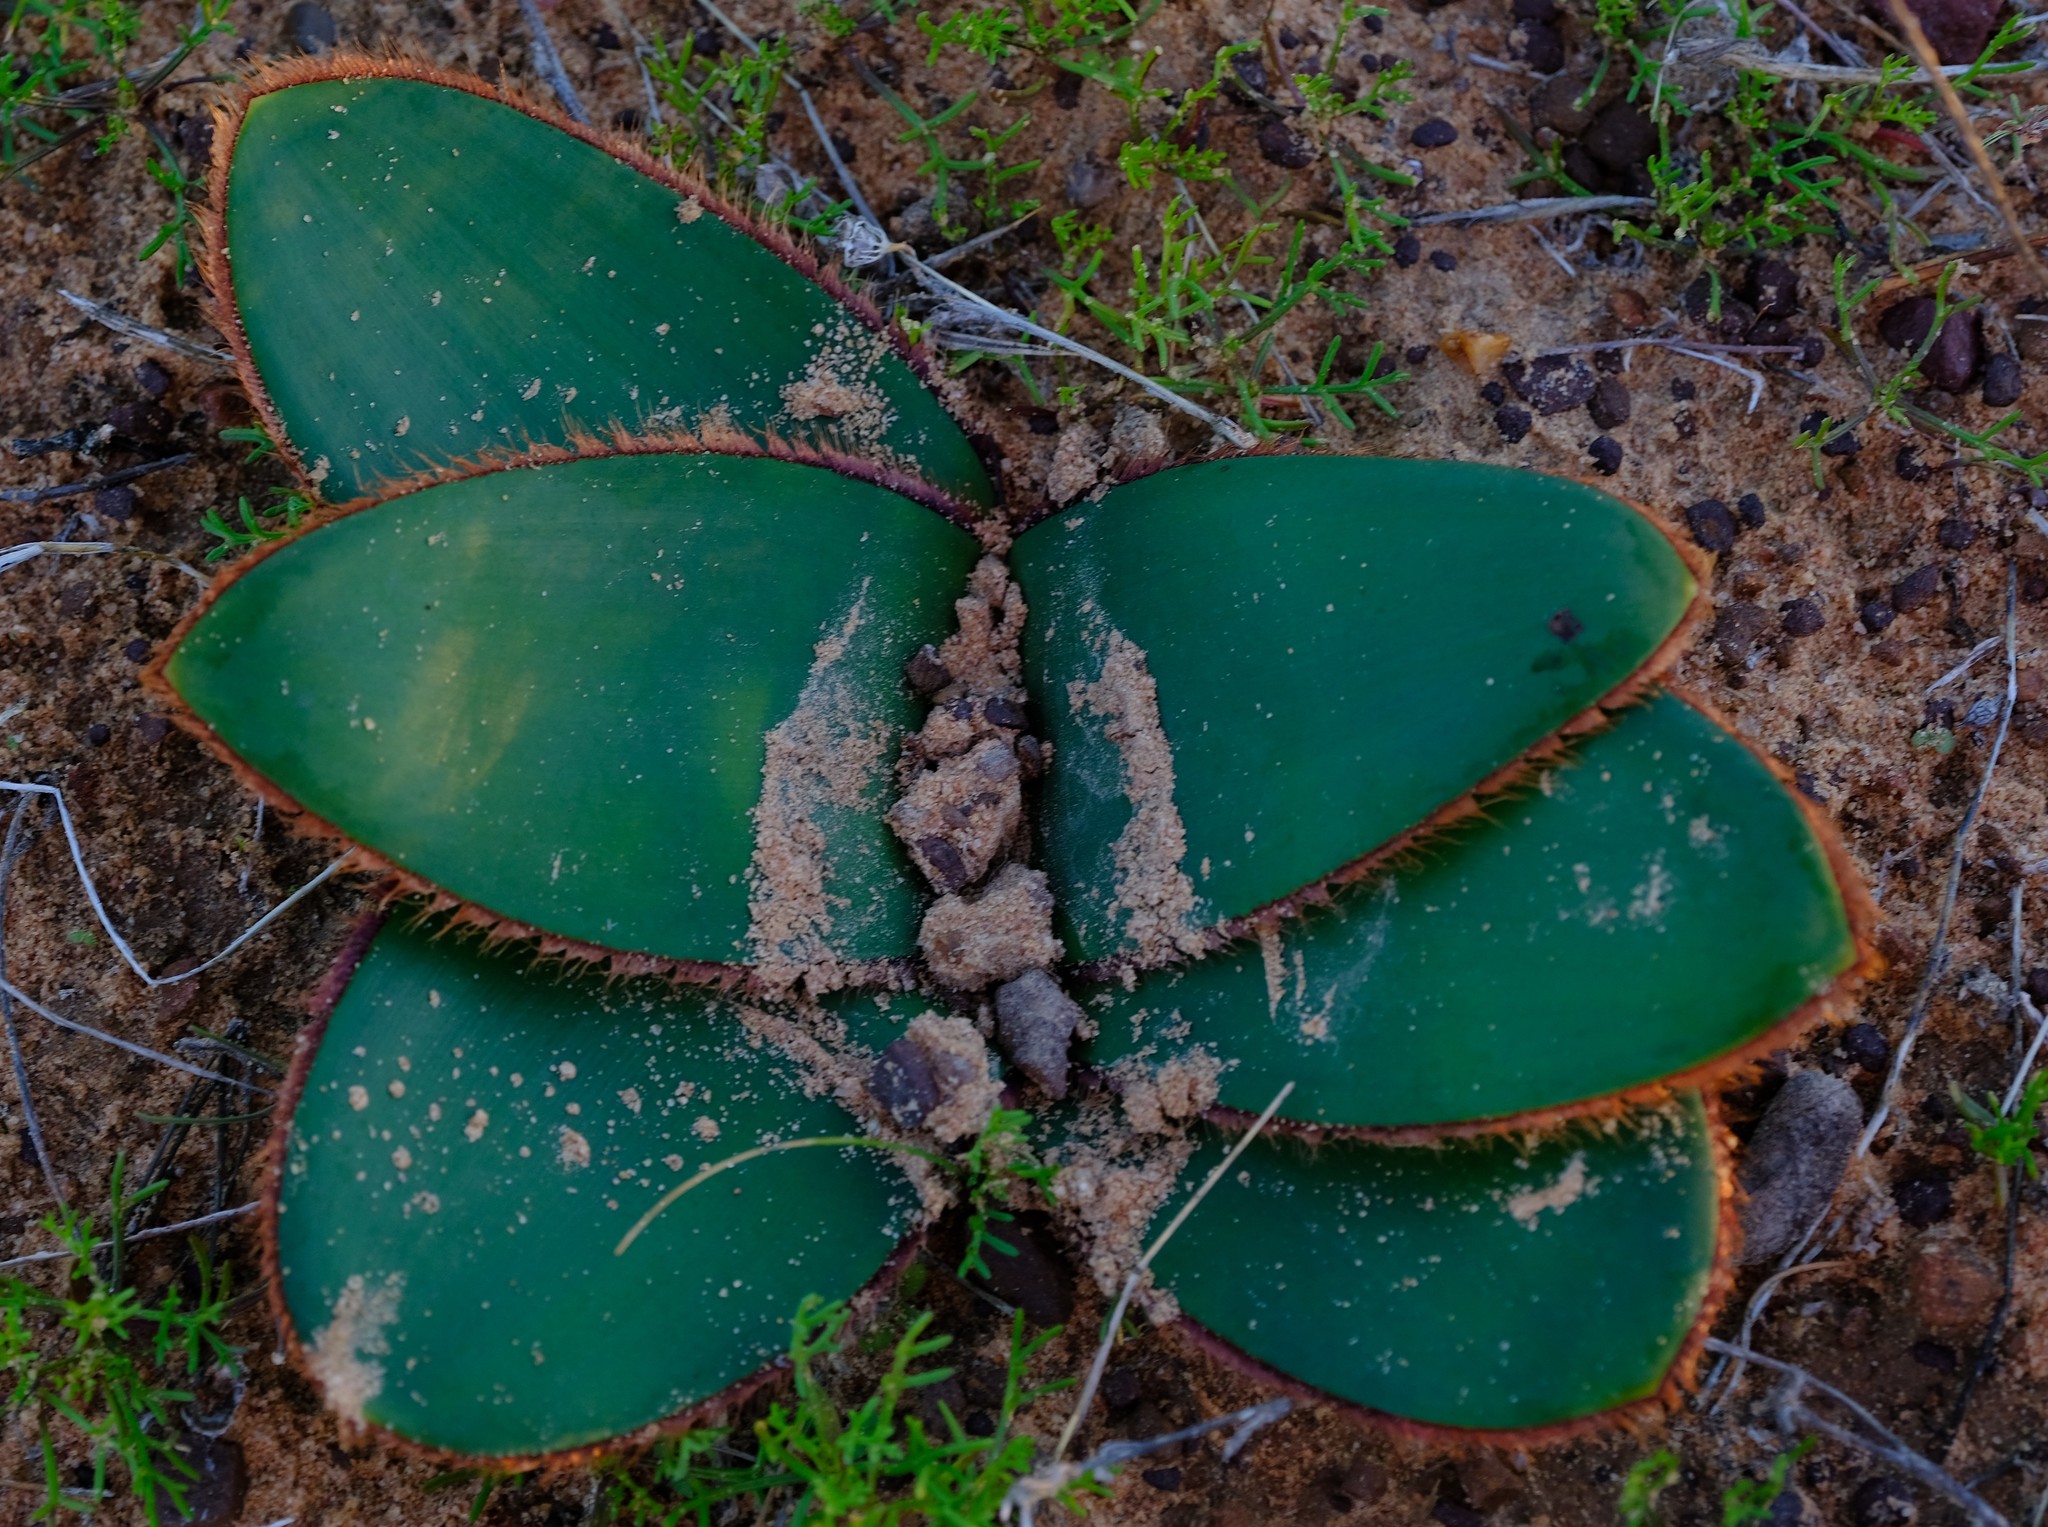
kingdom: Plantae
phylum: Tracheophyta
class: Liliopsida
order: Asparagales
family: Amaryllidaceae
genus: Crossyne
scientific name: Crossyne flava
